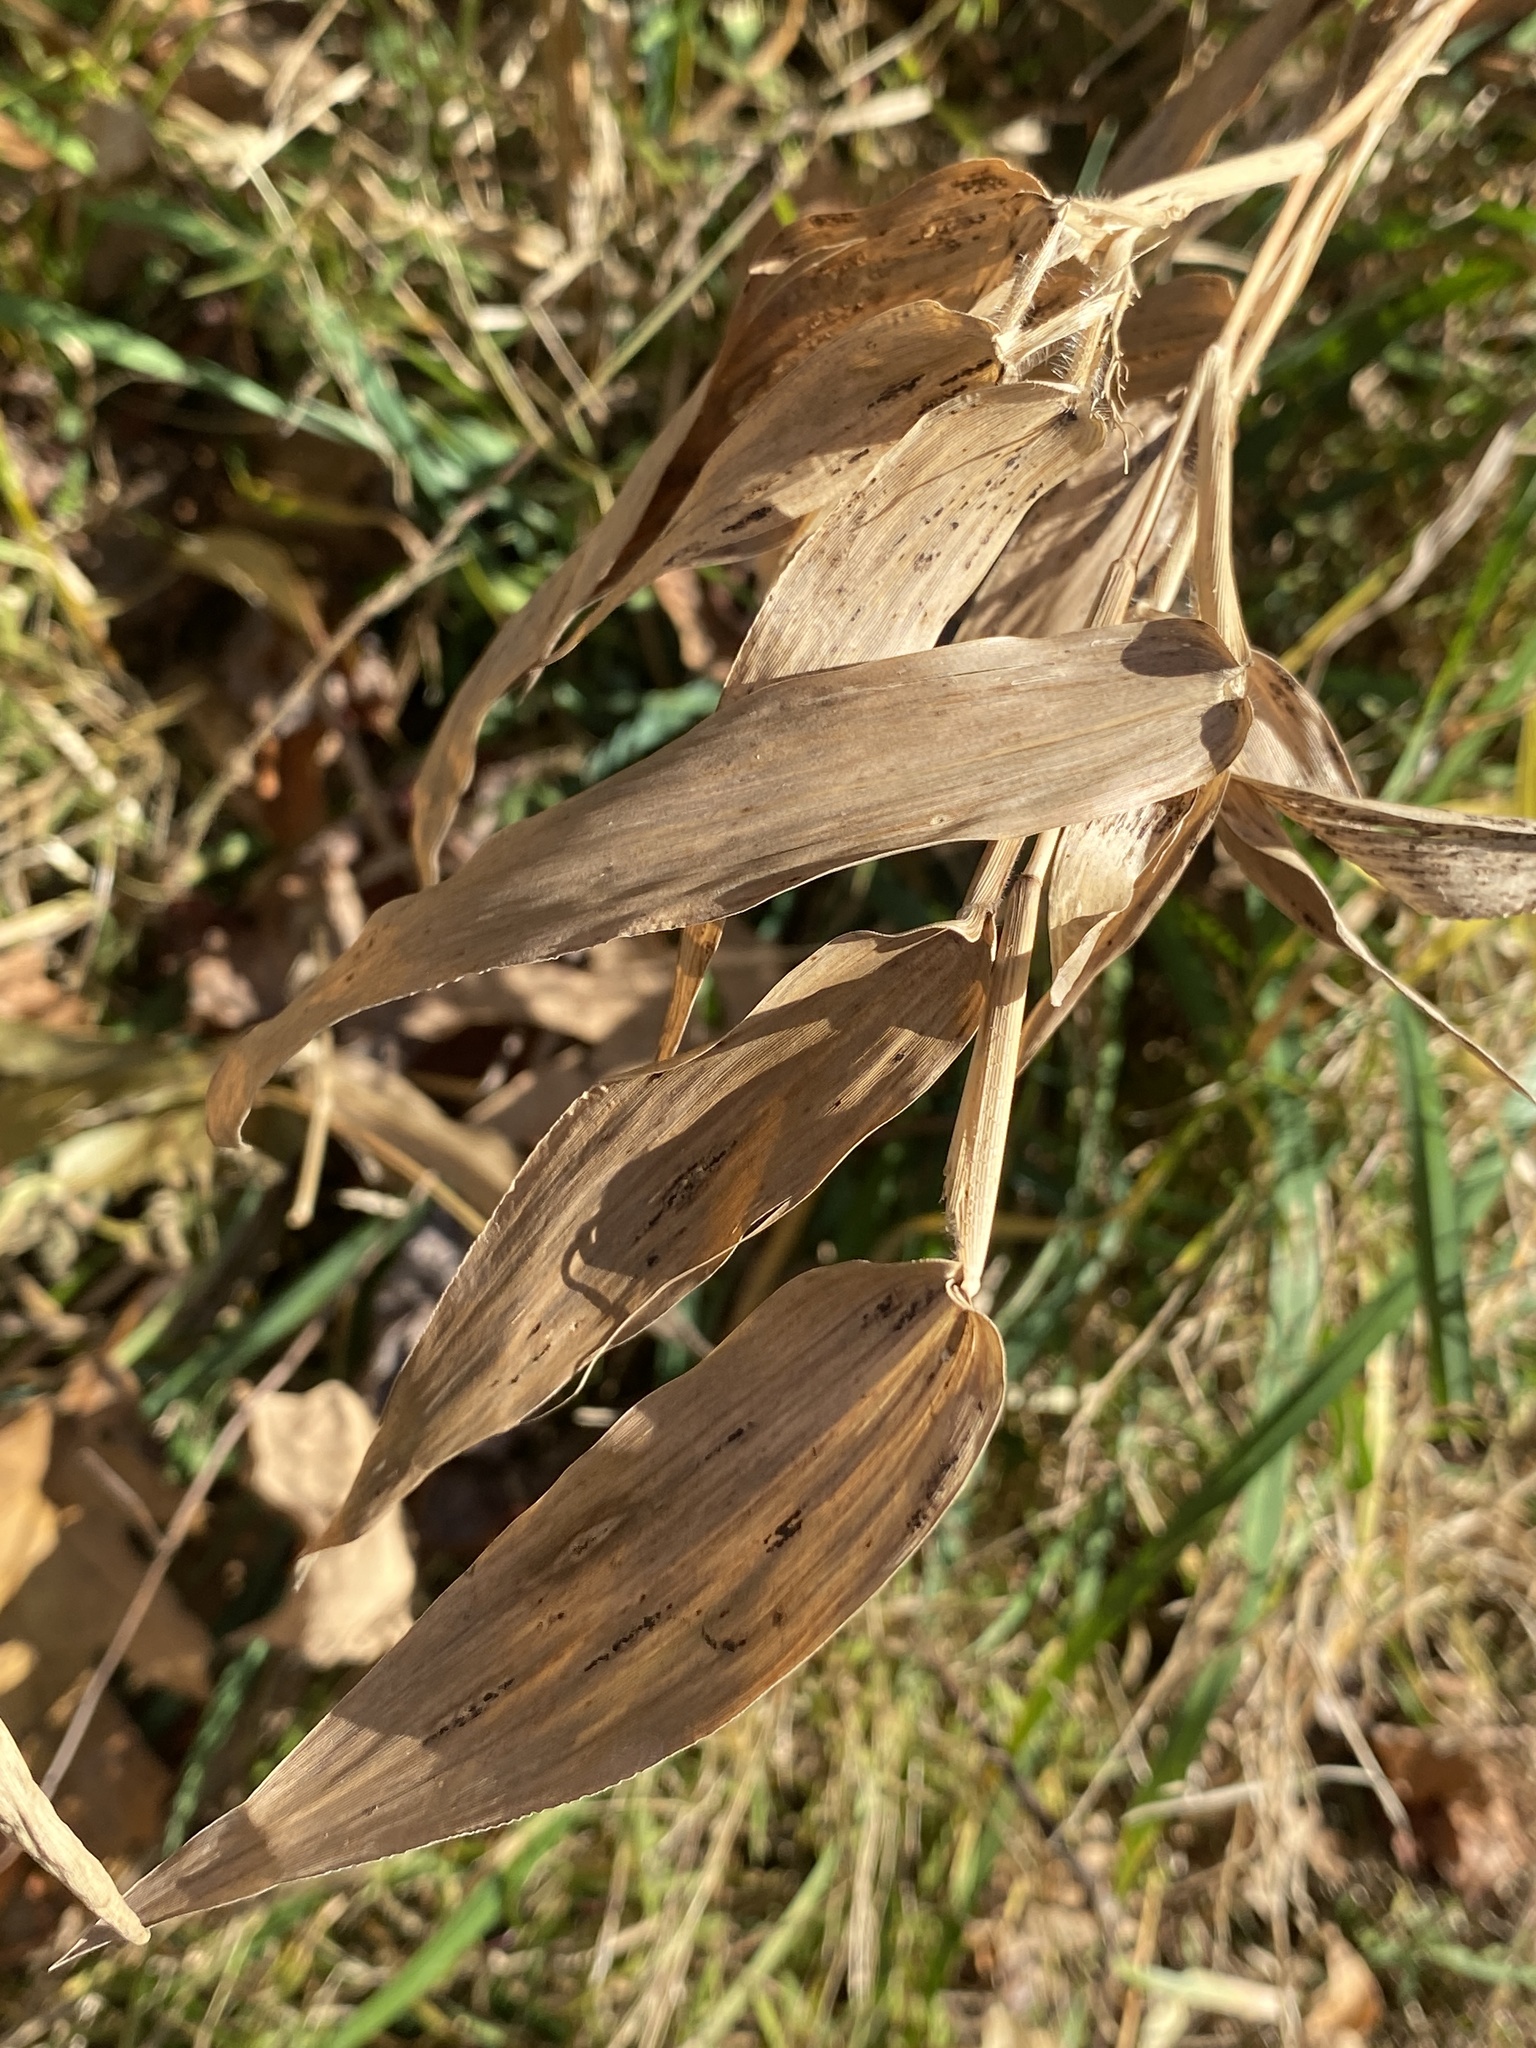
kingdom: Plantae
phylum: Tracheophyta
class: Liliopsida
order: Poales
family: Poaceae
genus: Dichanthelium
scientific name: Dichanthelium clandestinum
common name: Deer-tongue grass
